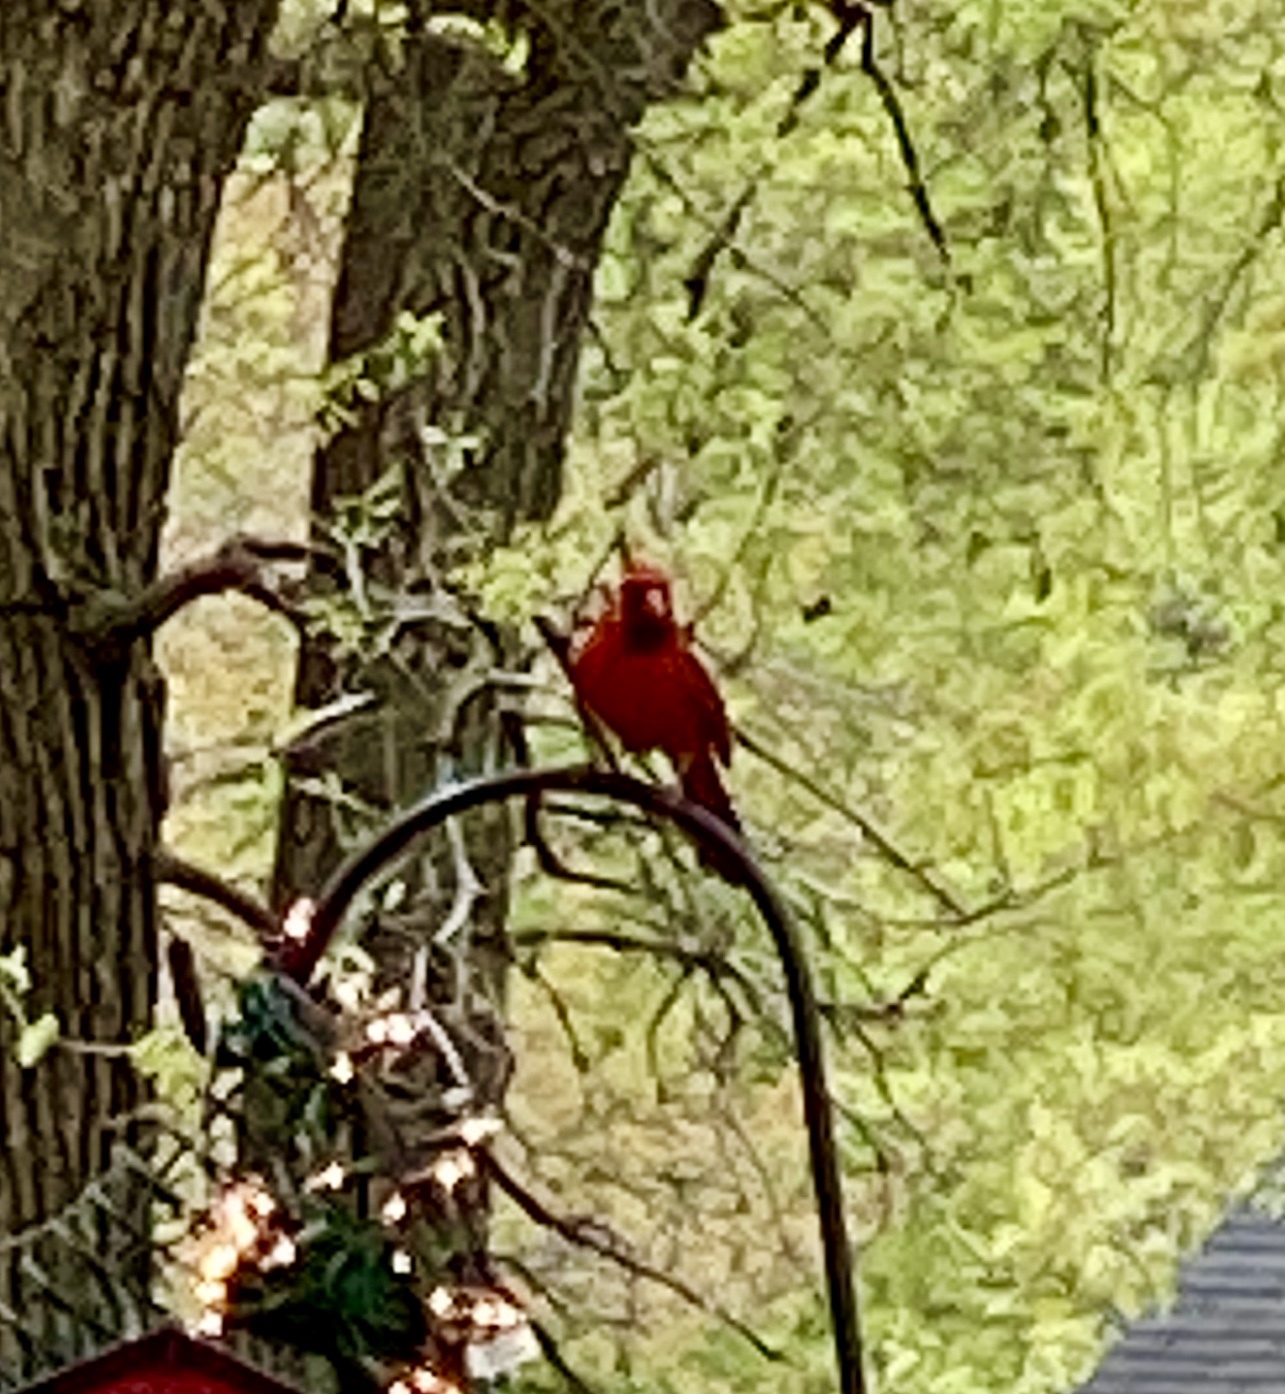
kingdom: Animalia
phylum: Chordata
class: Aves
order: Passeriformes
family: Cardinalidae
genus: Cardinalis
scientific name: Cardinalis cardinalis
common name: Northern cardinal
